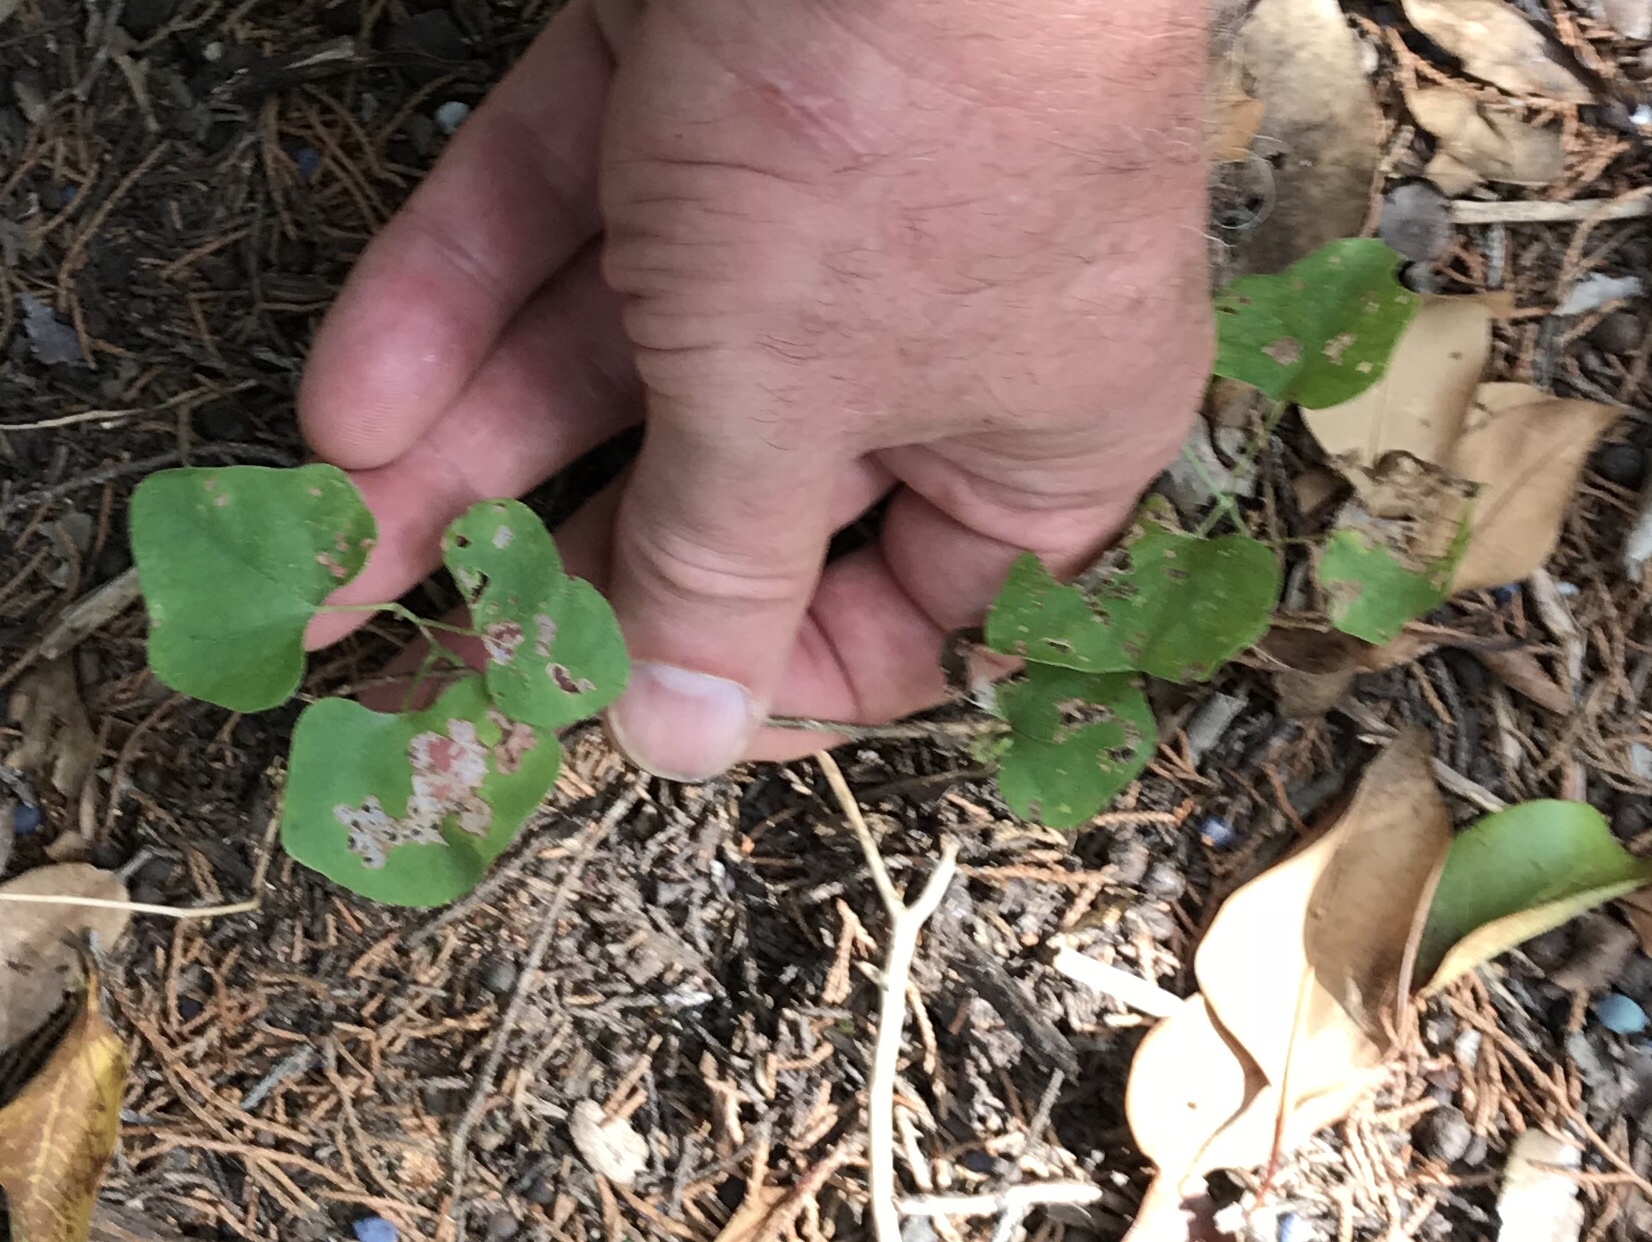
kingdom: Plantae
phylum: Tracheophyta
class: Magnoliopsida
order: Ranunculales
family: Menispermaceae
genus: Cocculus
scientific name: Cocculus carolinus
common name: Carolina moonseed
